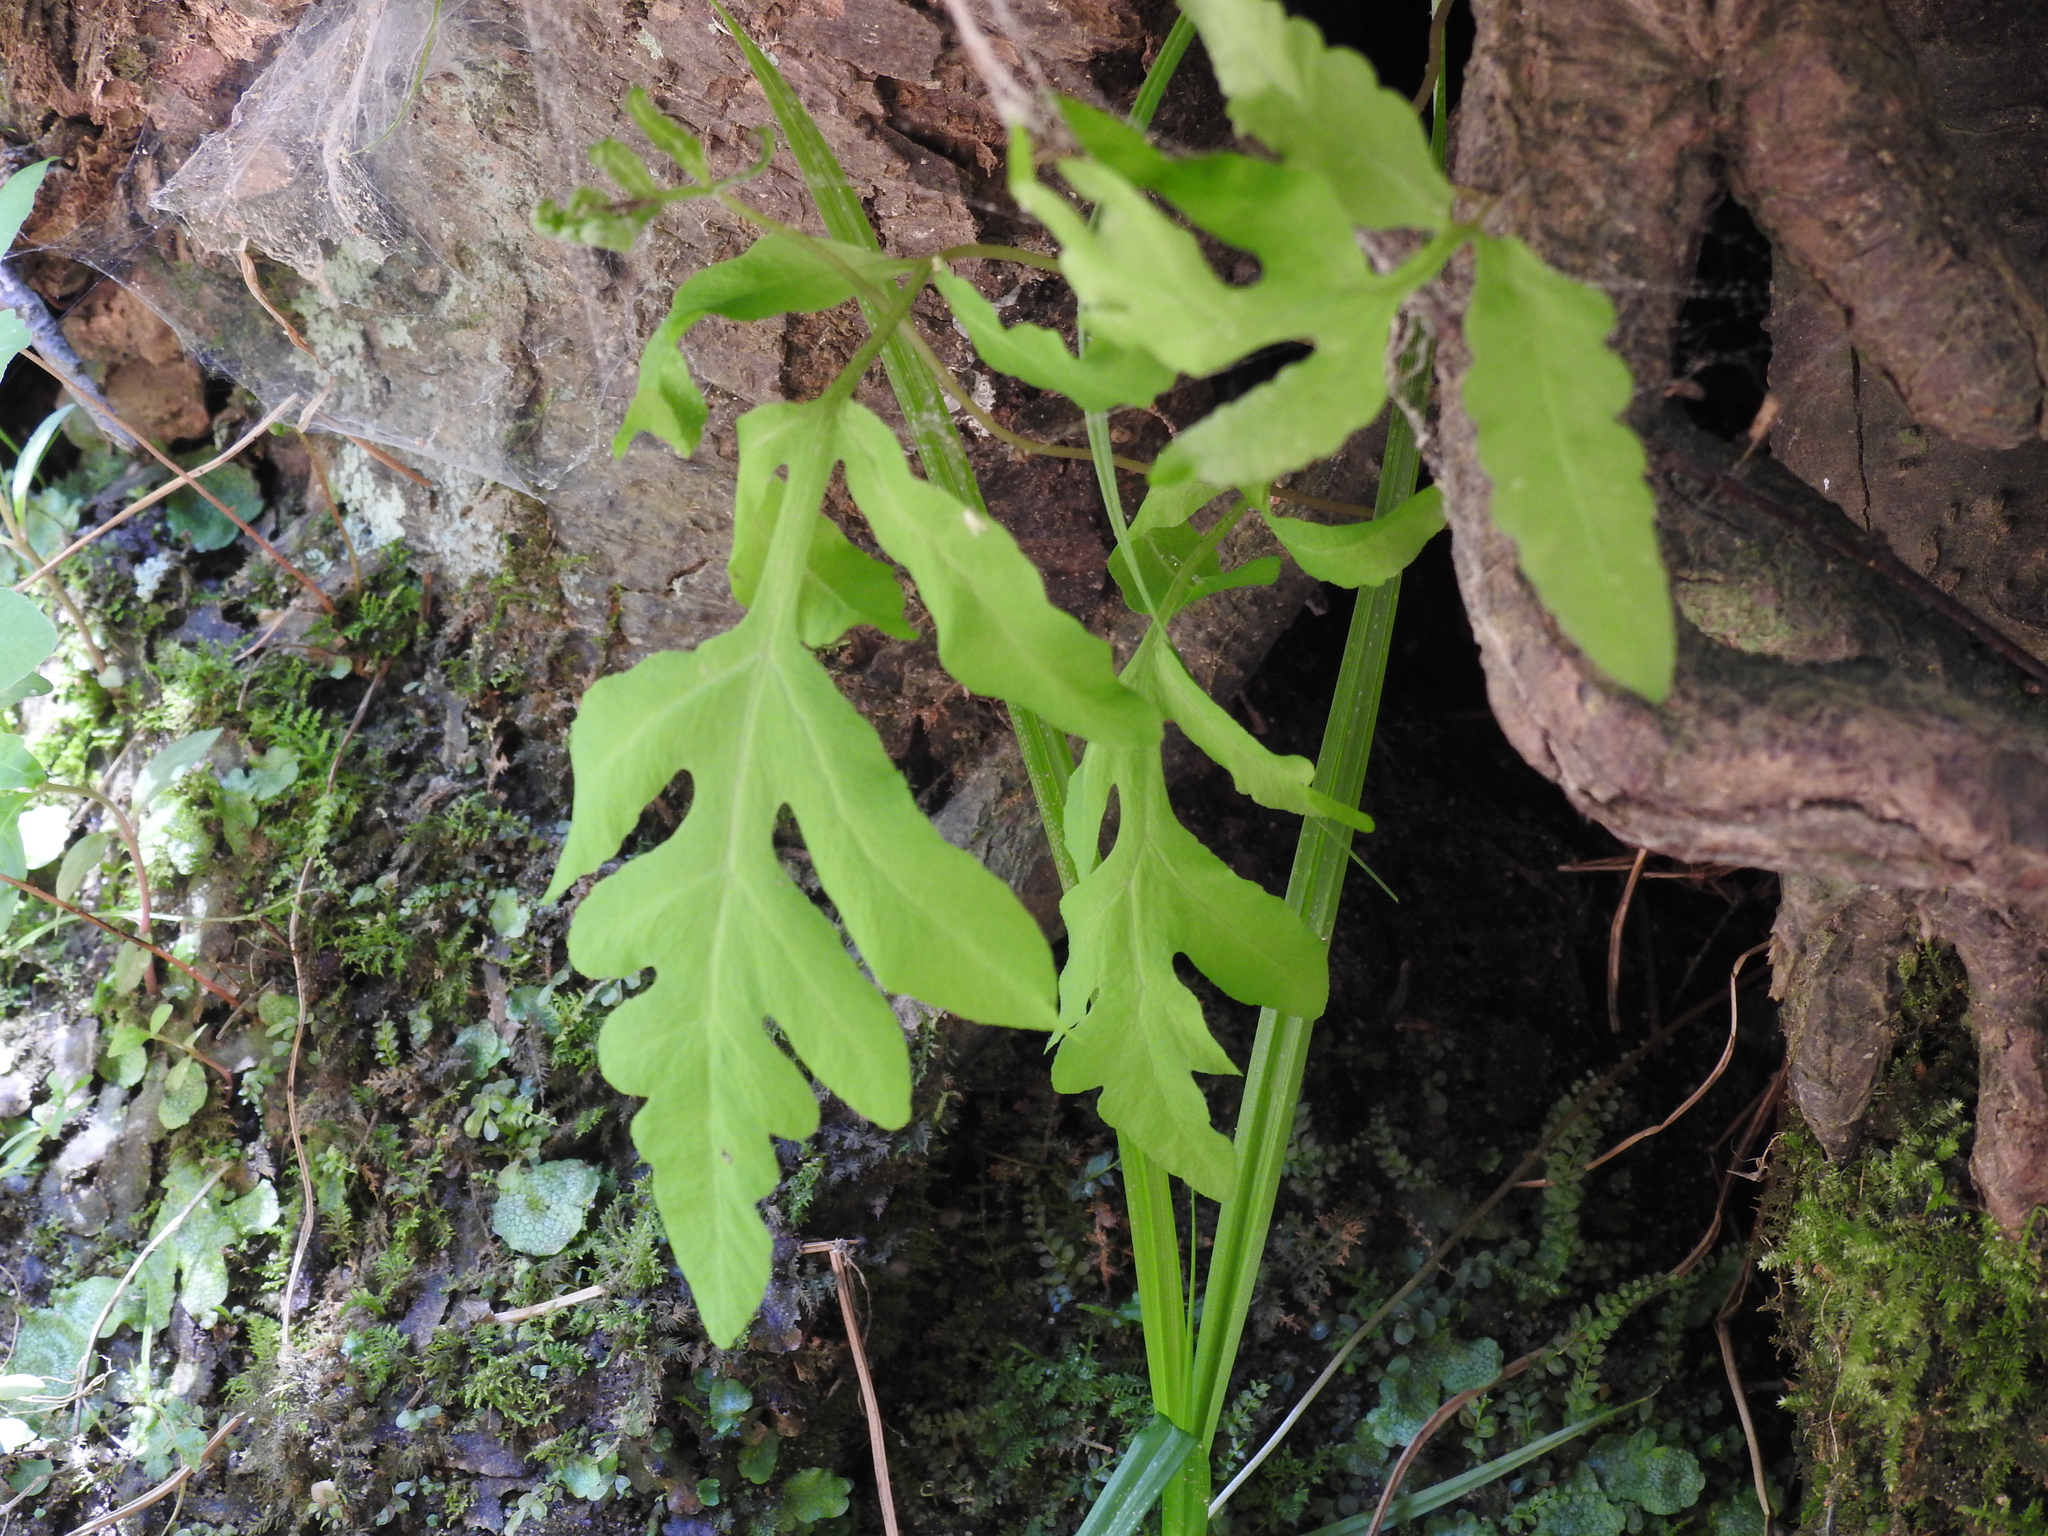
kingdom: Plantae
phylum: Tracheophyta
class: Polypodiopsida
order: Polypodiales
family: Onocleaceae
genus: Onoclea
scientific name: Onoclea sensibilis
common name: Sensitive fern
